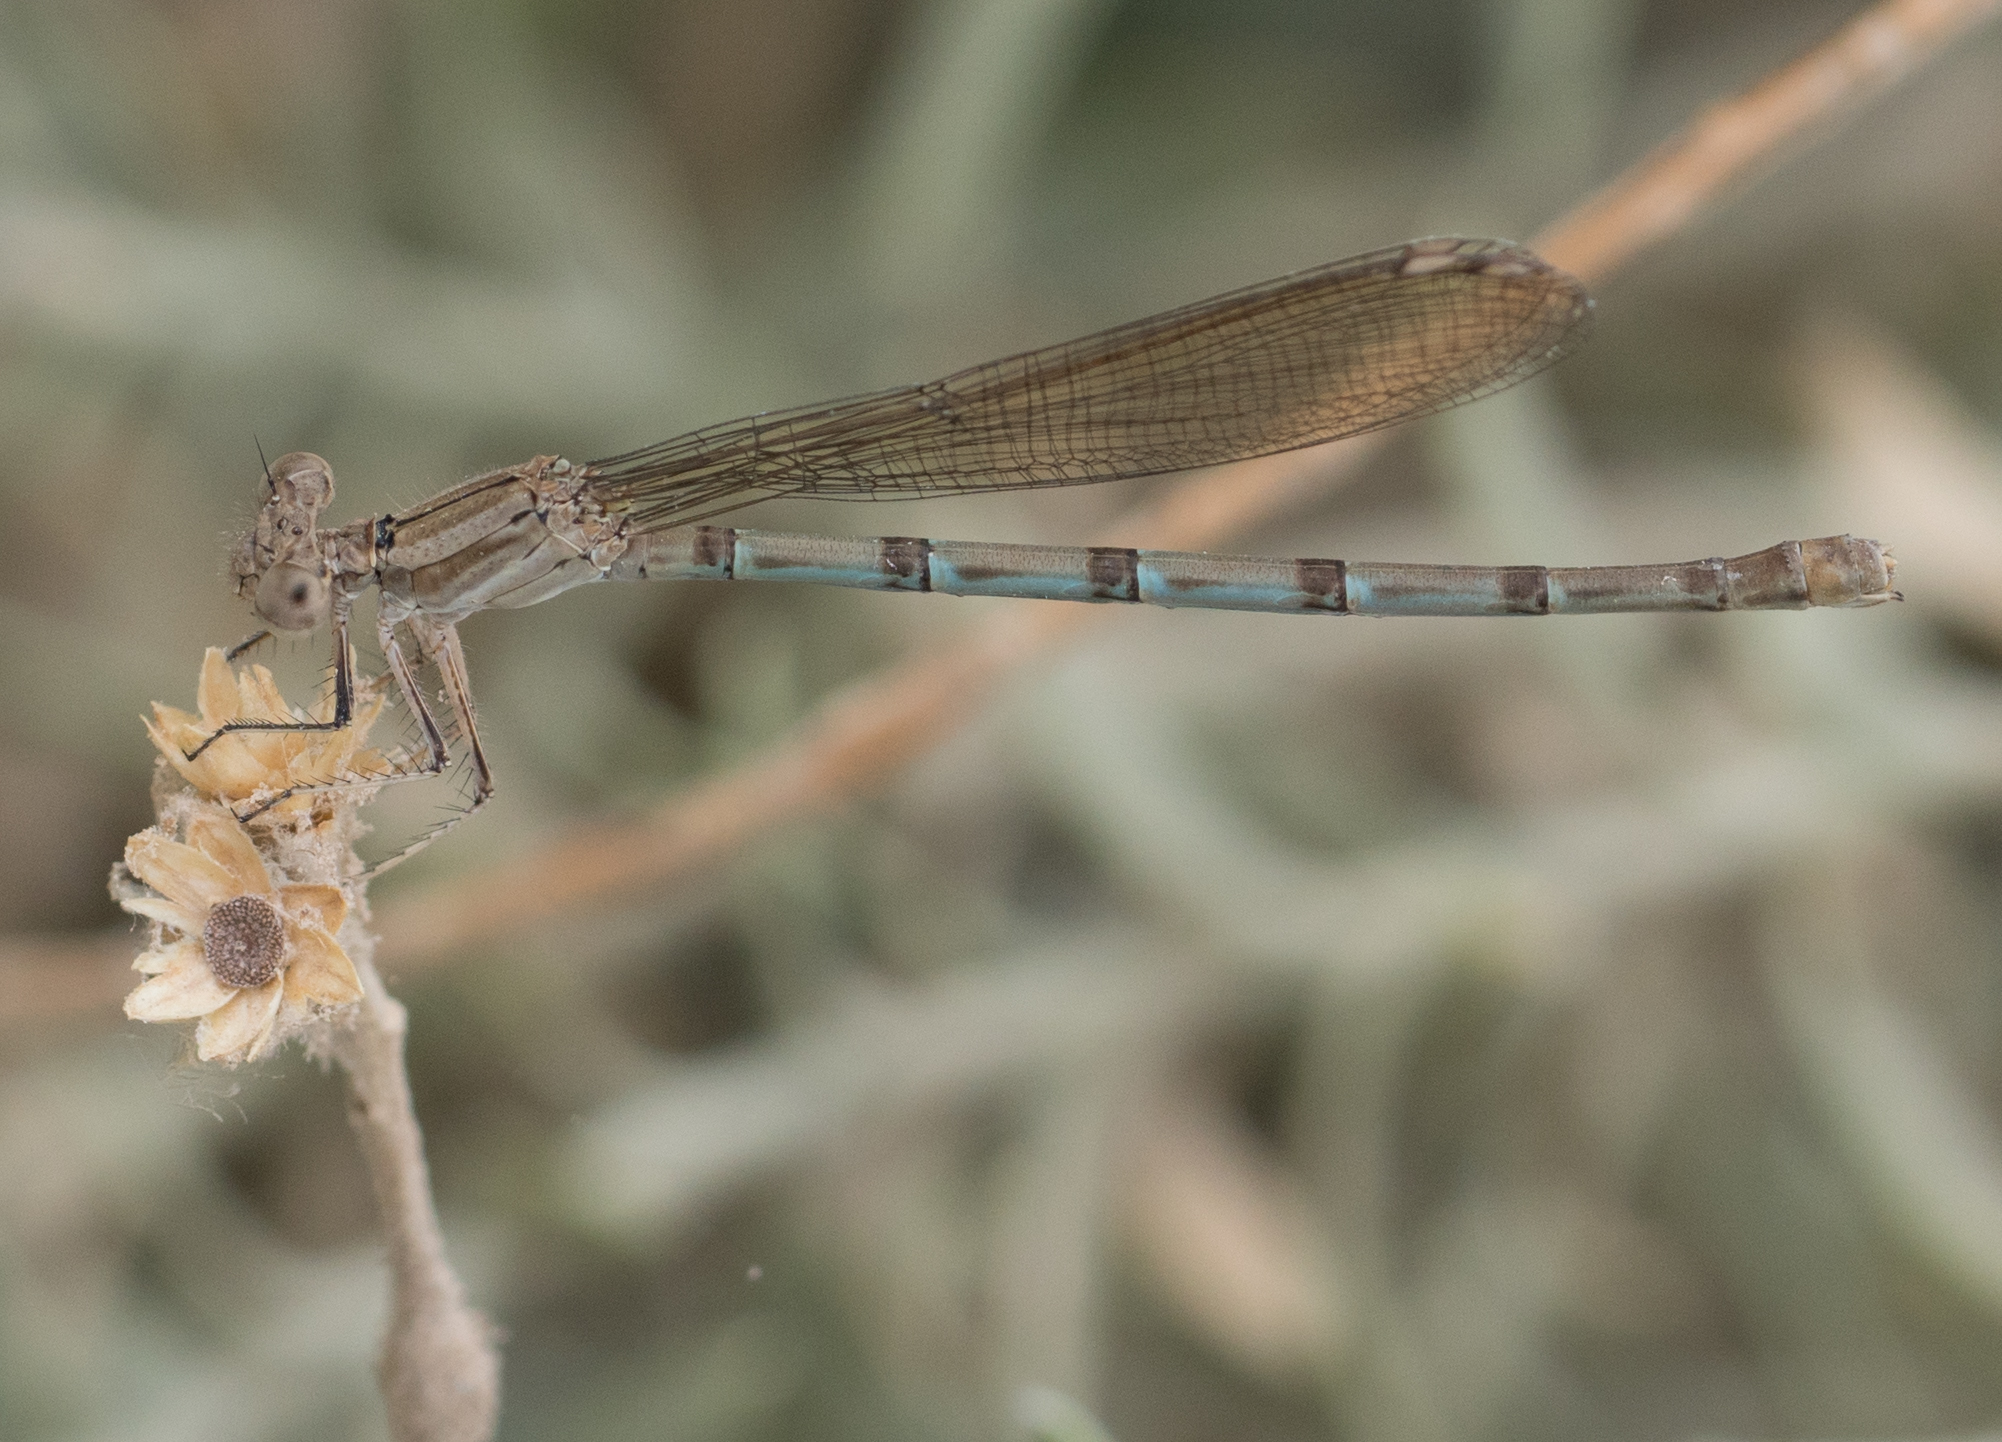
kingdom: Animalia
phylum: Arthropoda
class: Insecta
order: Odonata
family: Coenagrionidae
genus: Argia
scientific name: Argia sedula
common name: Blue-ringed dancer
